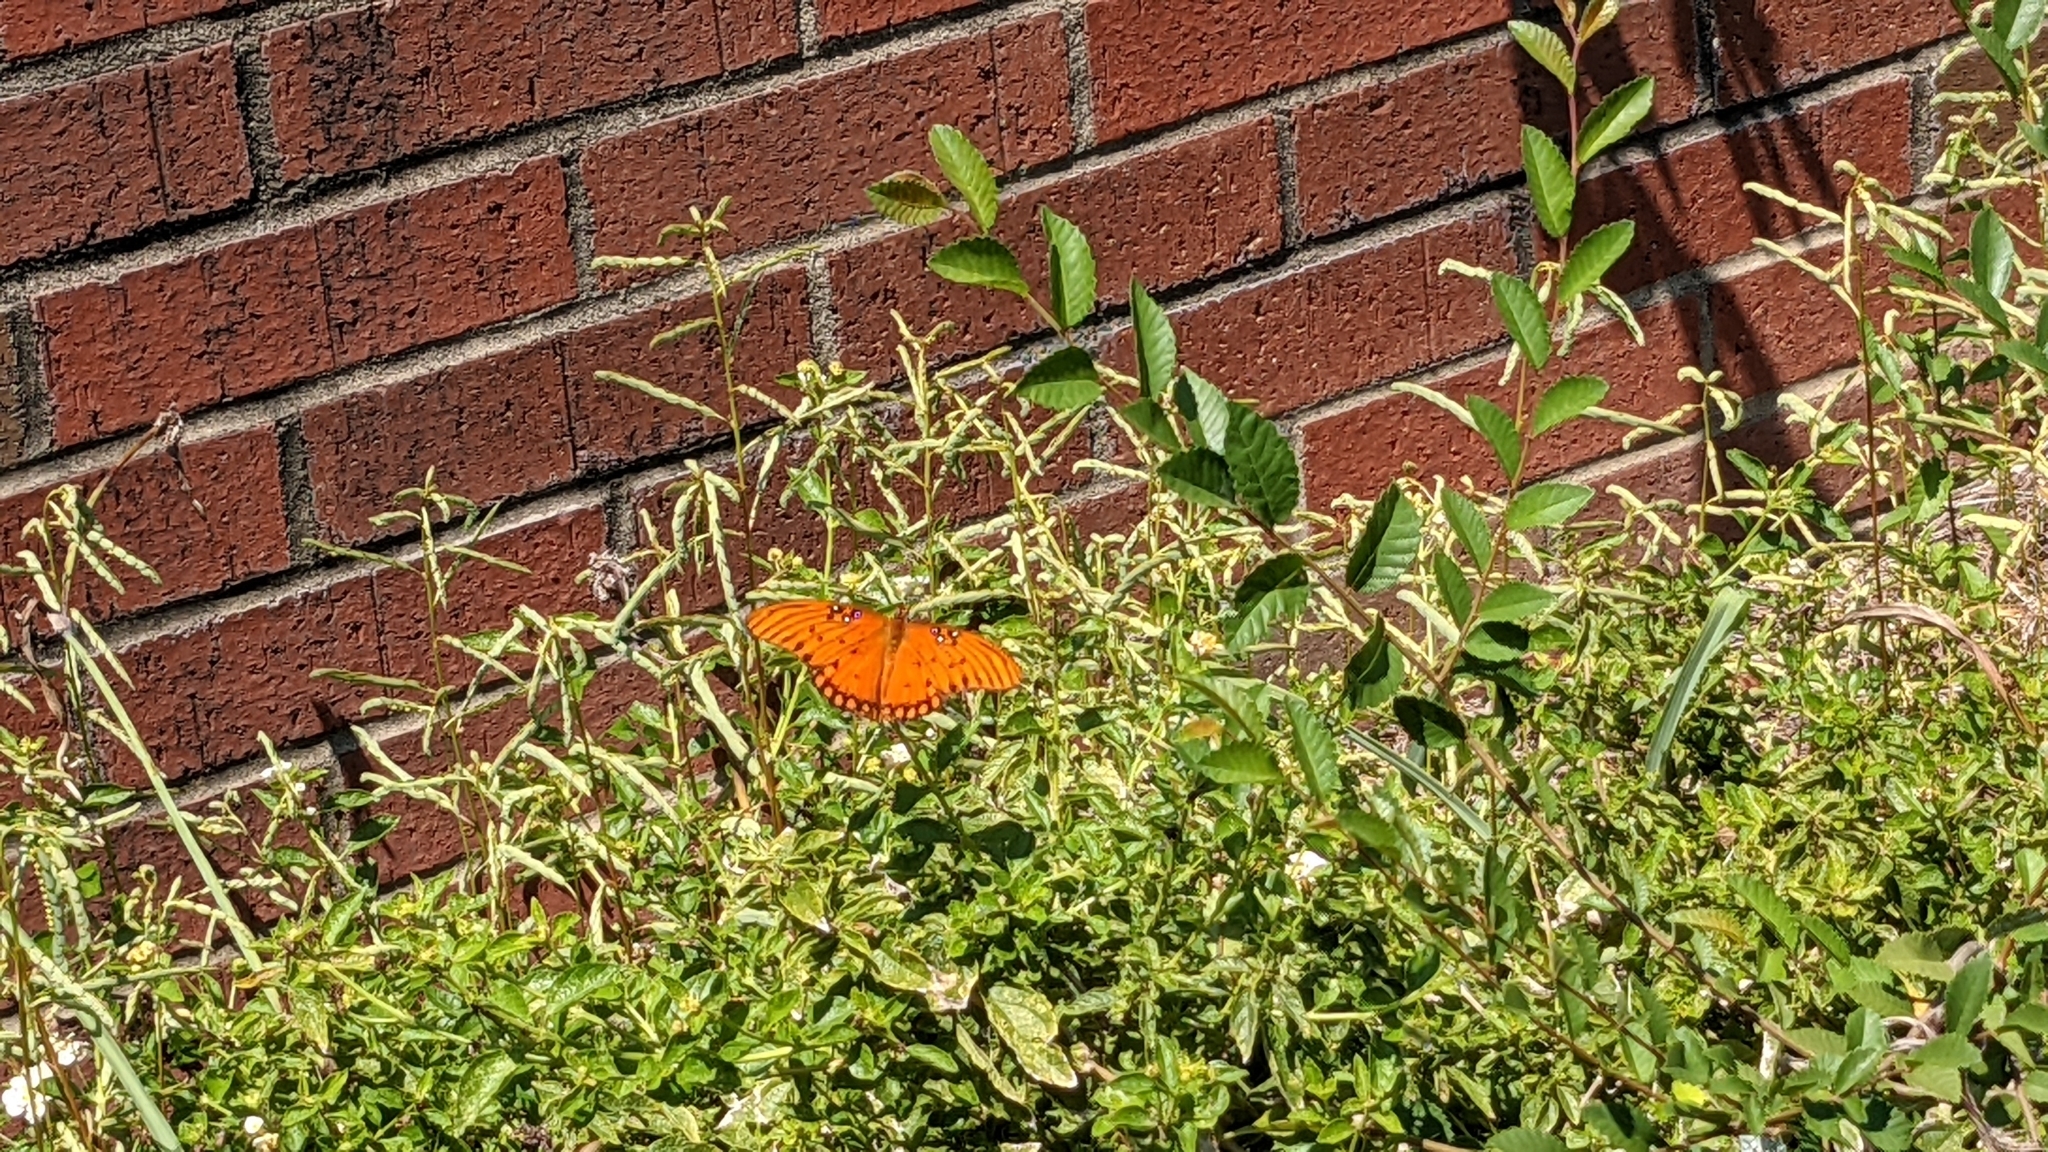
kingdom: Animalia
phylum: Arthropoda
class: Insecta
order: Lepidoptera
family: Nymphalidae
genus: Dione
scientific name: Dione vanillae
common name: Gulf fritillary
